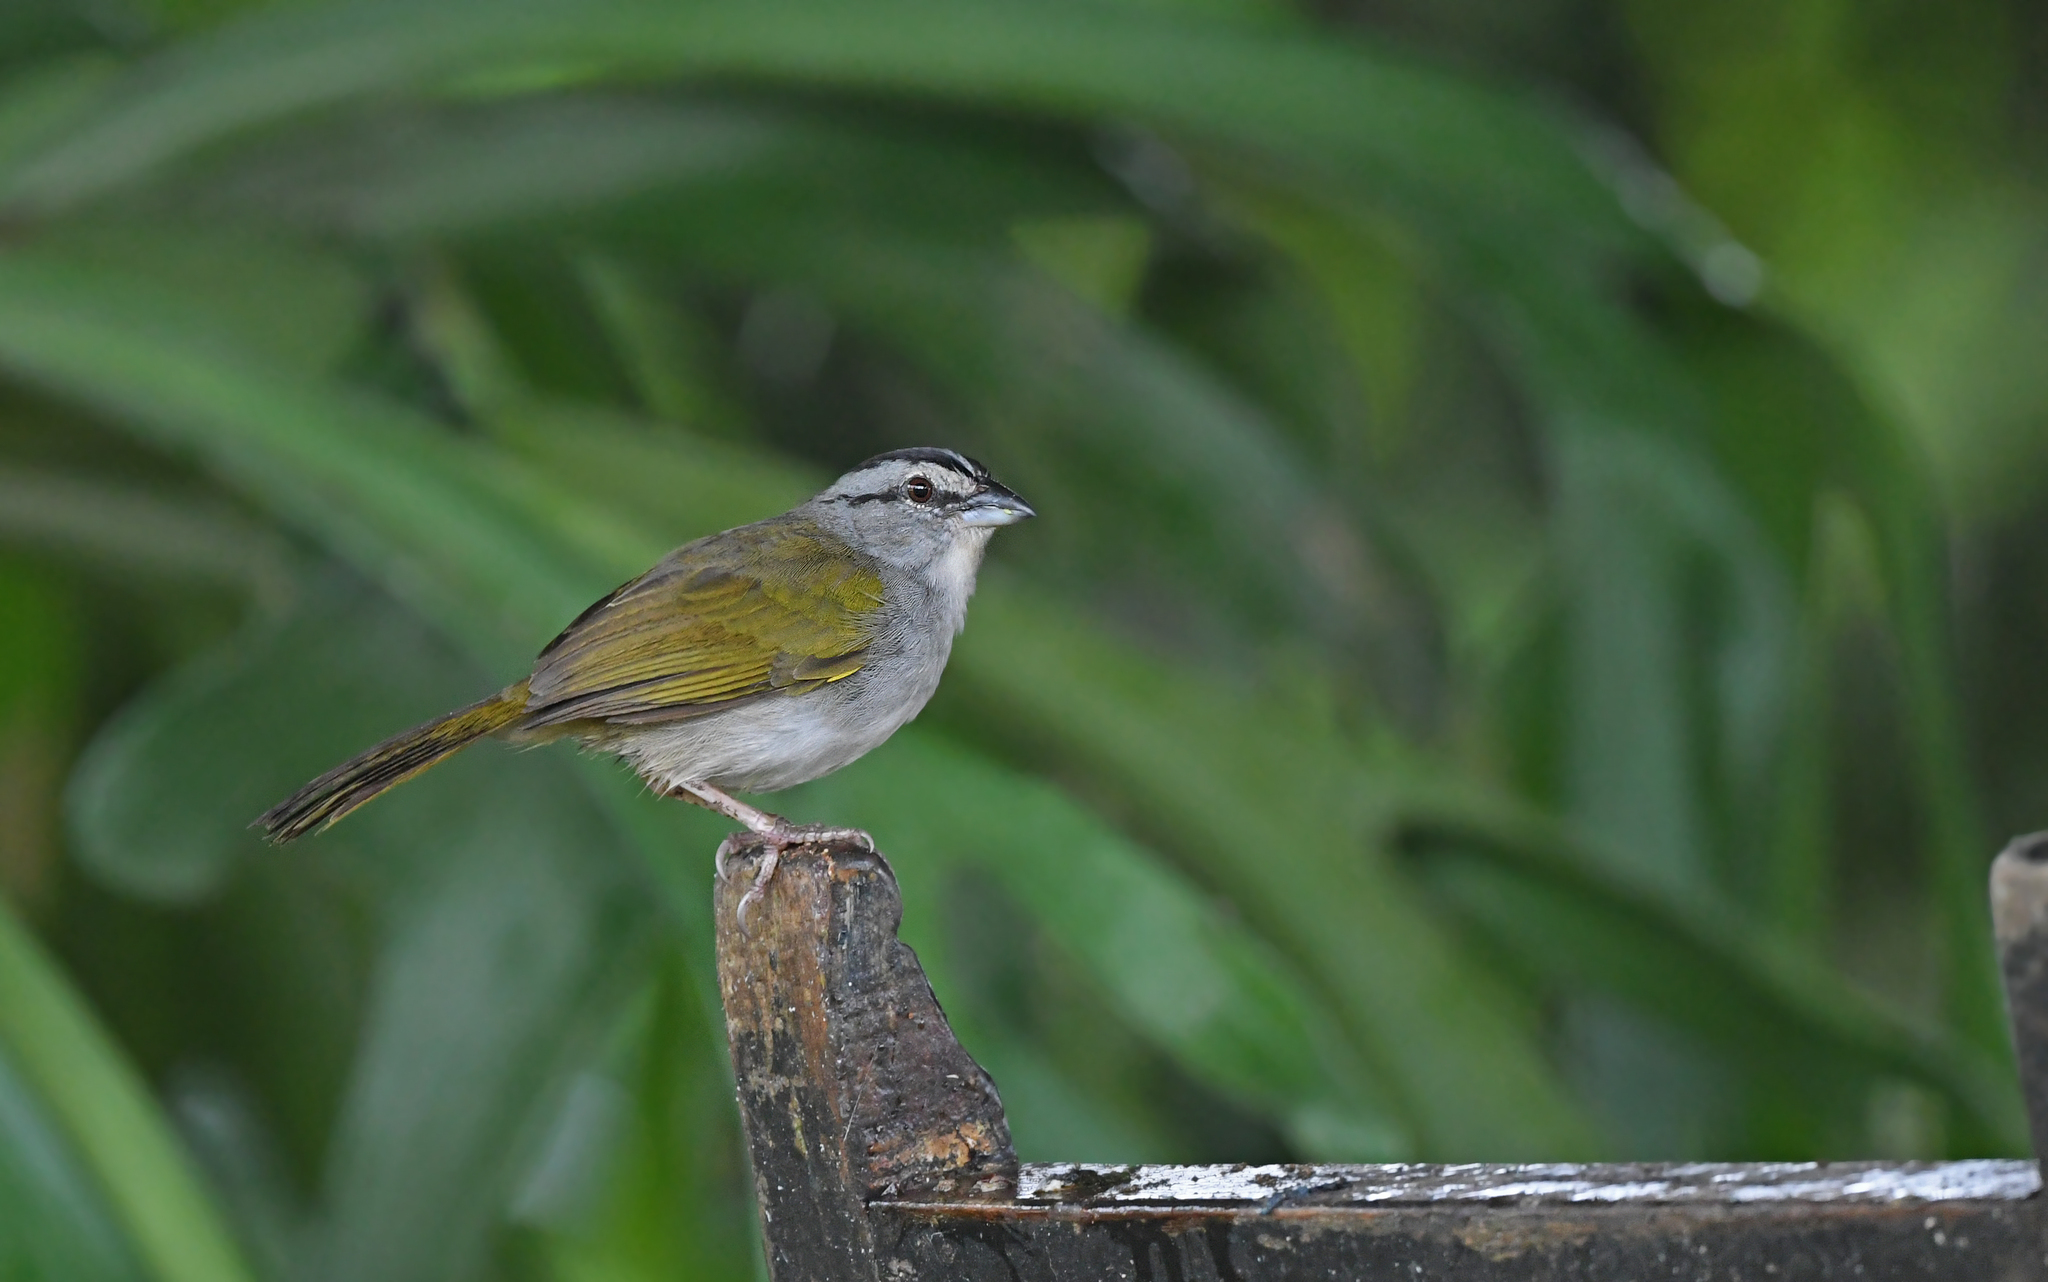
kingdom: Animalia
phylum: Chordata
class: Aves
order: Passeriformes
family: Passerellidae
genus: Arremonops
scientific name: Arremonops conirostris
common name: Black-striped sparrow
